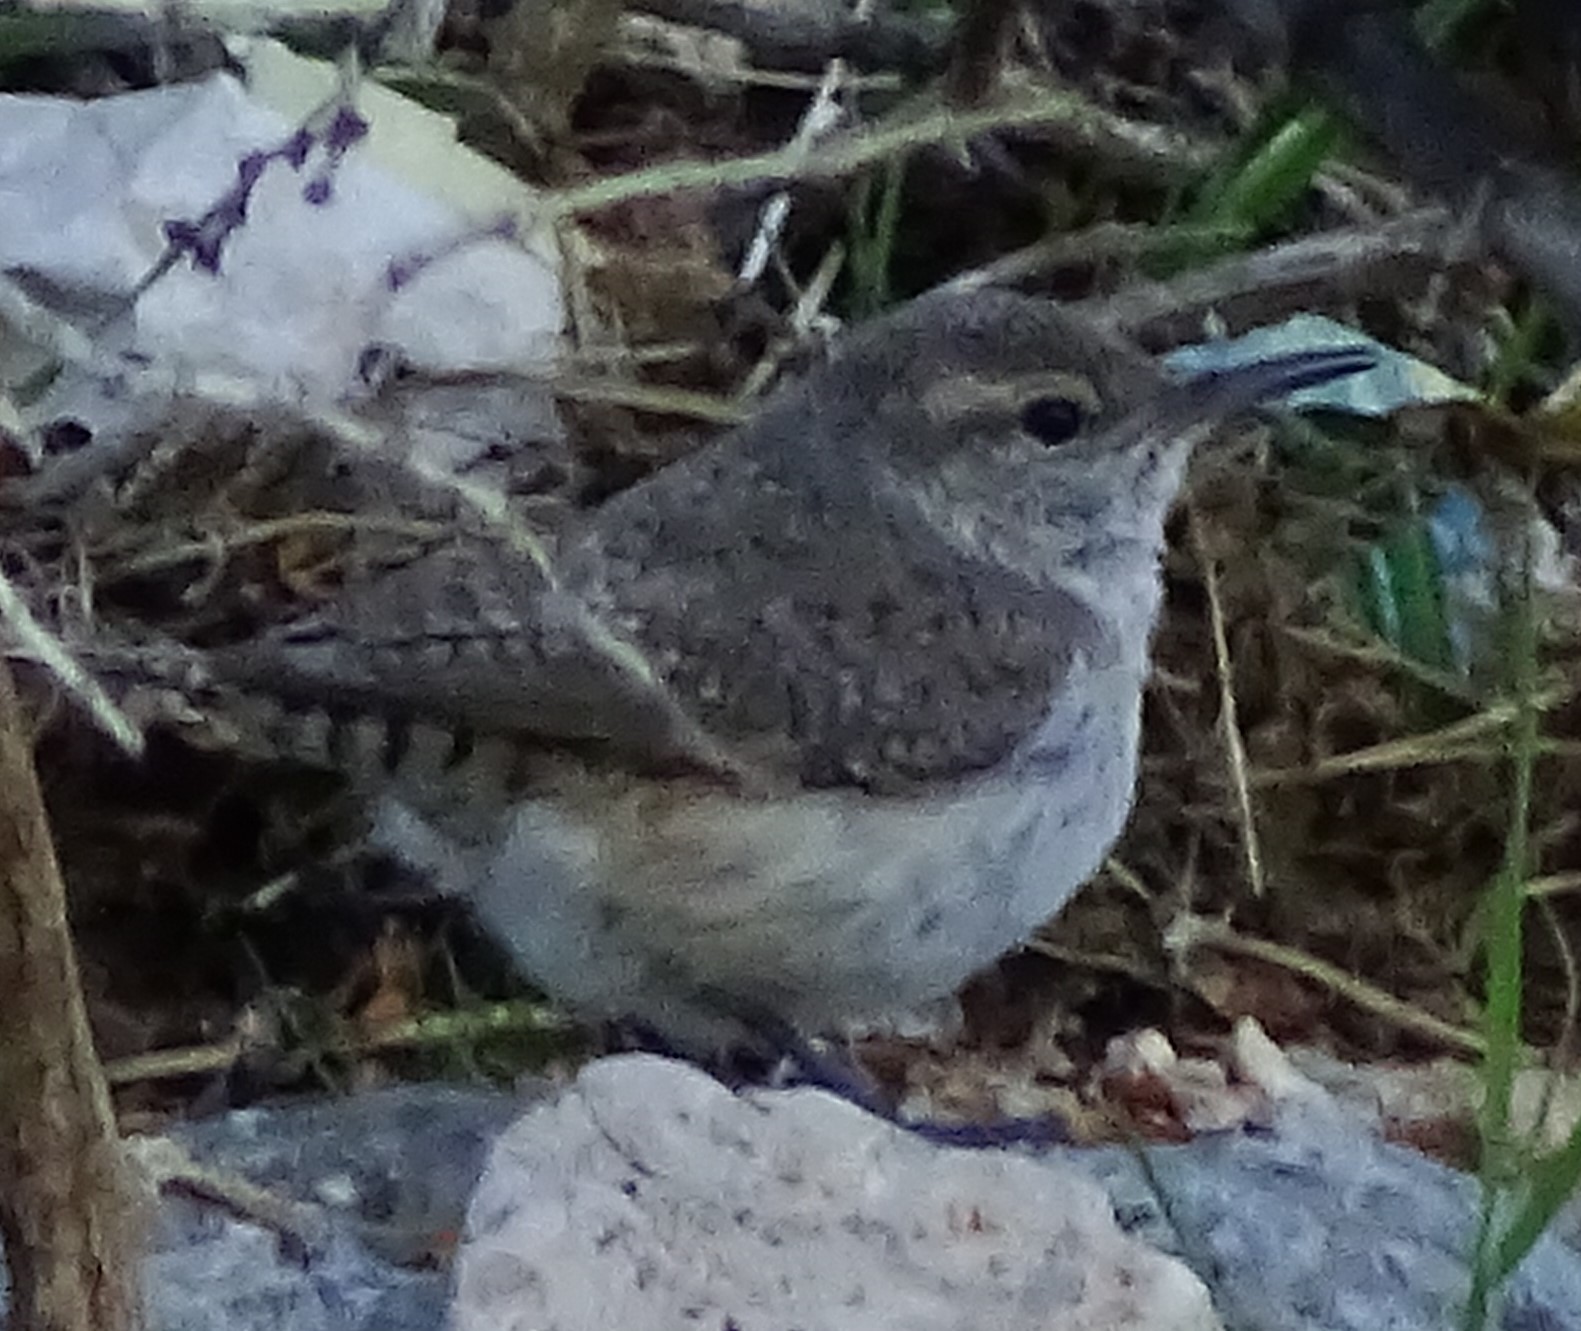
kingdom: Animalia
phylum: Chordata
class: Aves
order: Passeriformes
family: Troglodytidae
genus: Salpinctes
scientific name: Salpinctes obsoletus
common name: Rock wren
